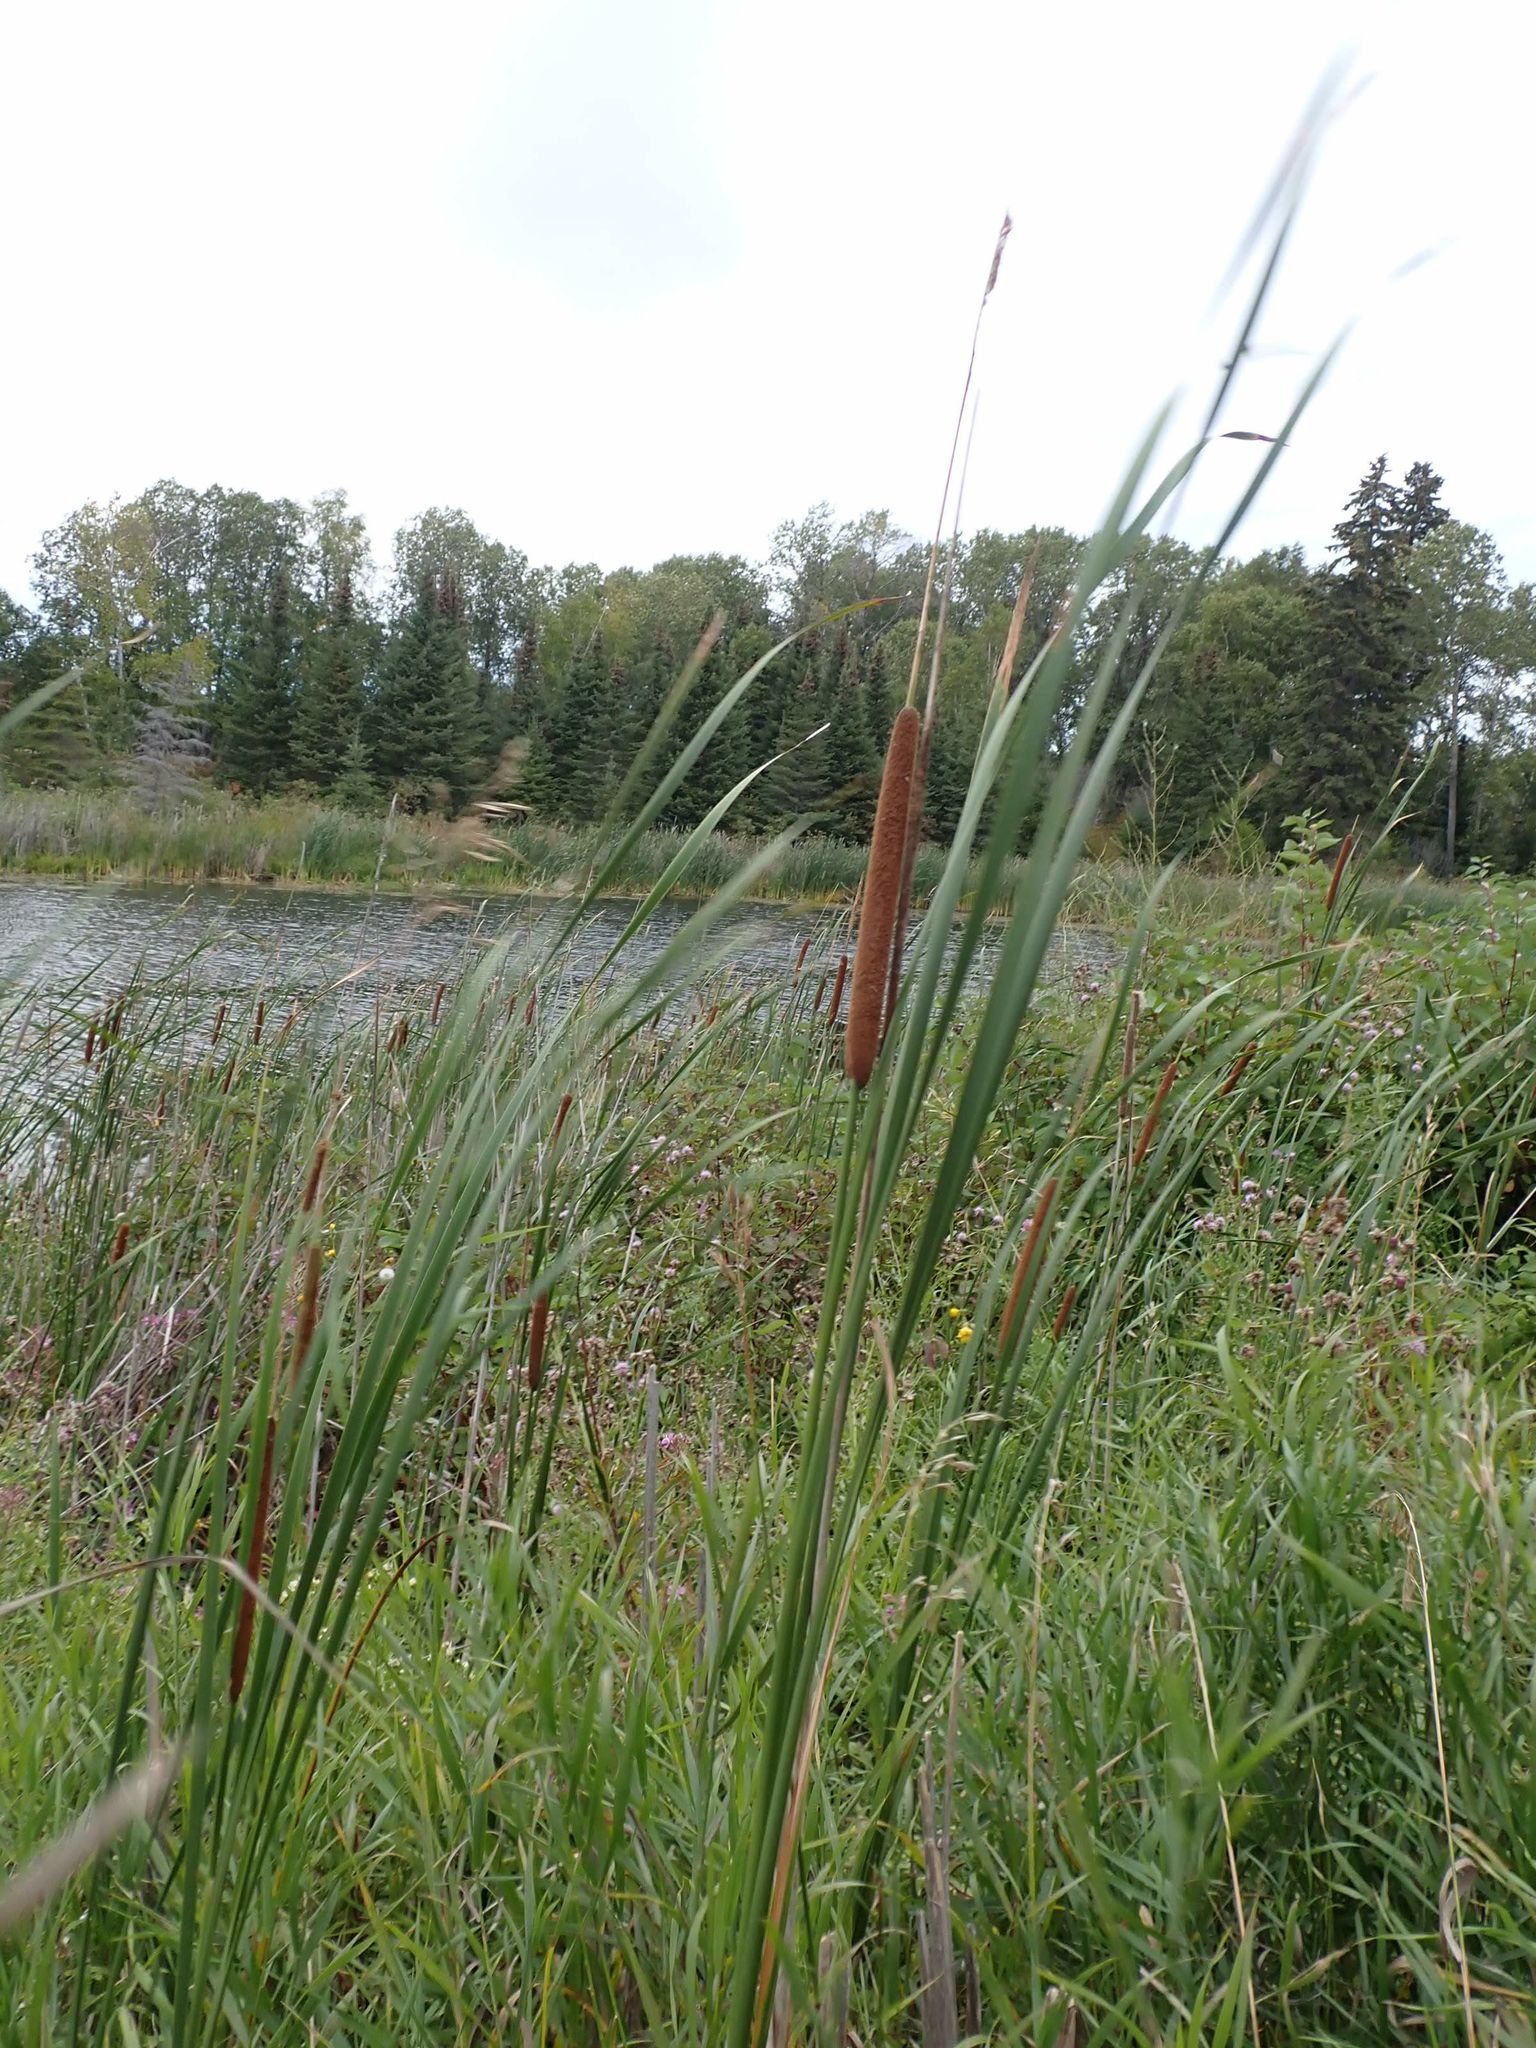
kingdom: Plantae
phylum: Tracheophyta
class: Liliopsida
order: Poales
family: Typhaceae
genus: Typha
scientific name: Typha angustifolia
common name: Lesser bulrush
